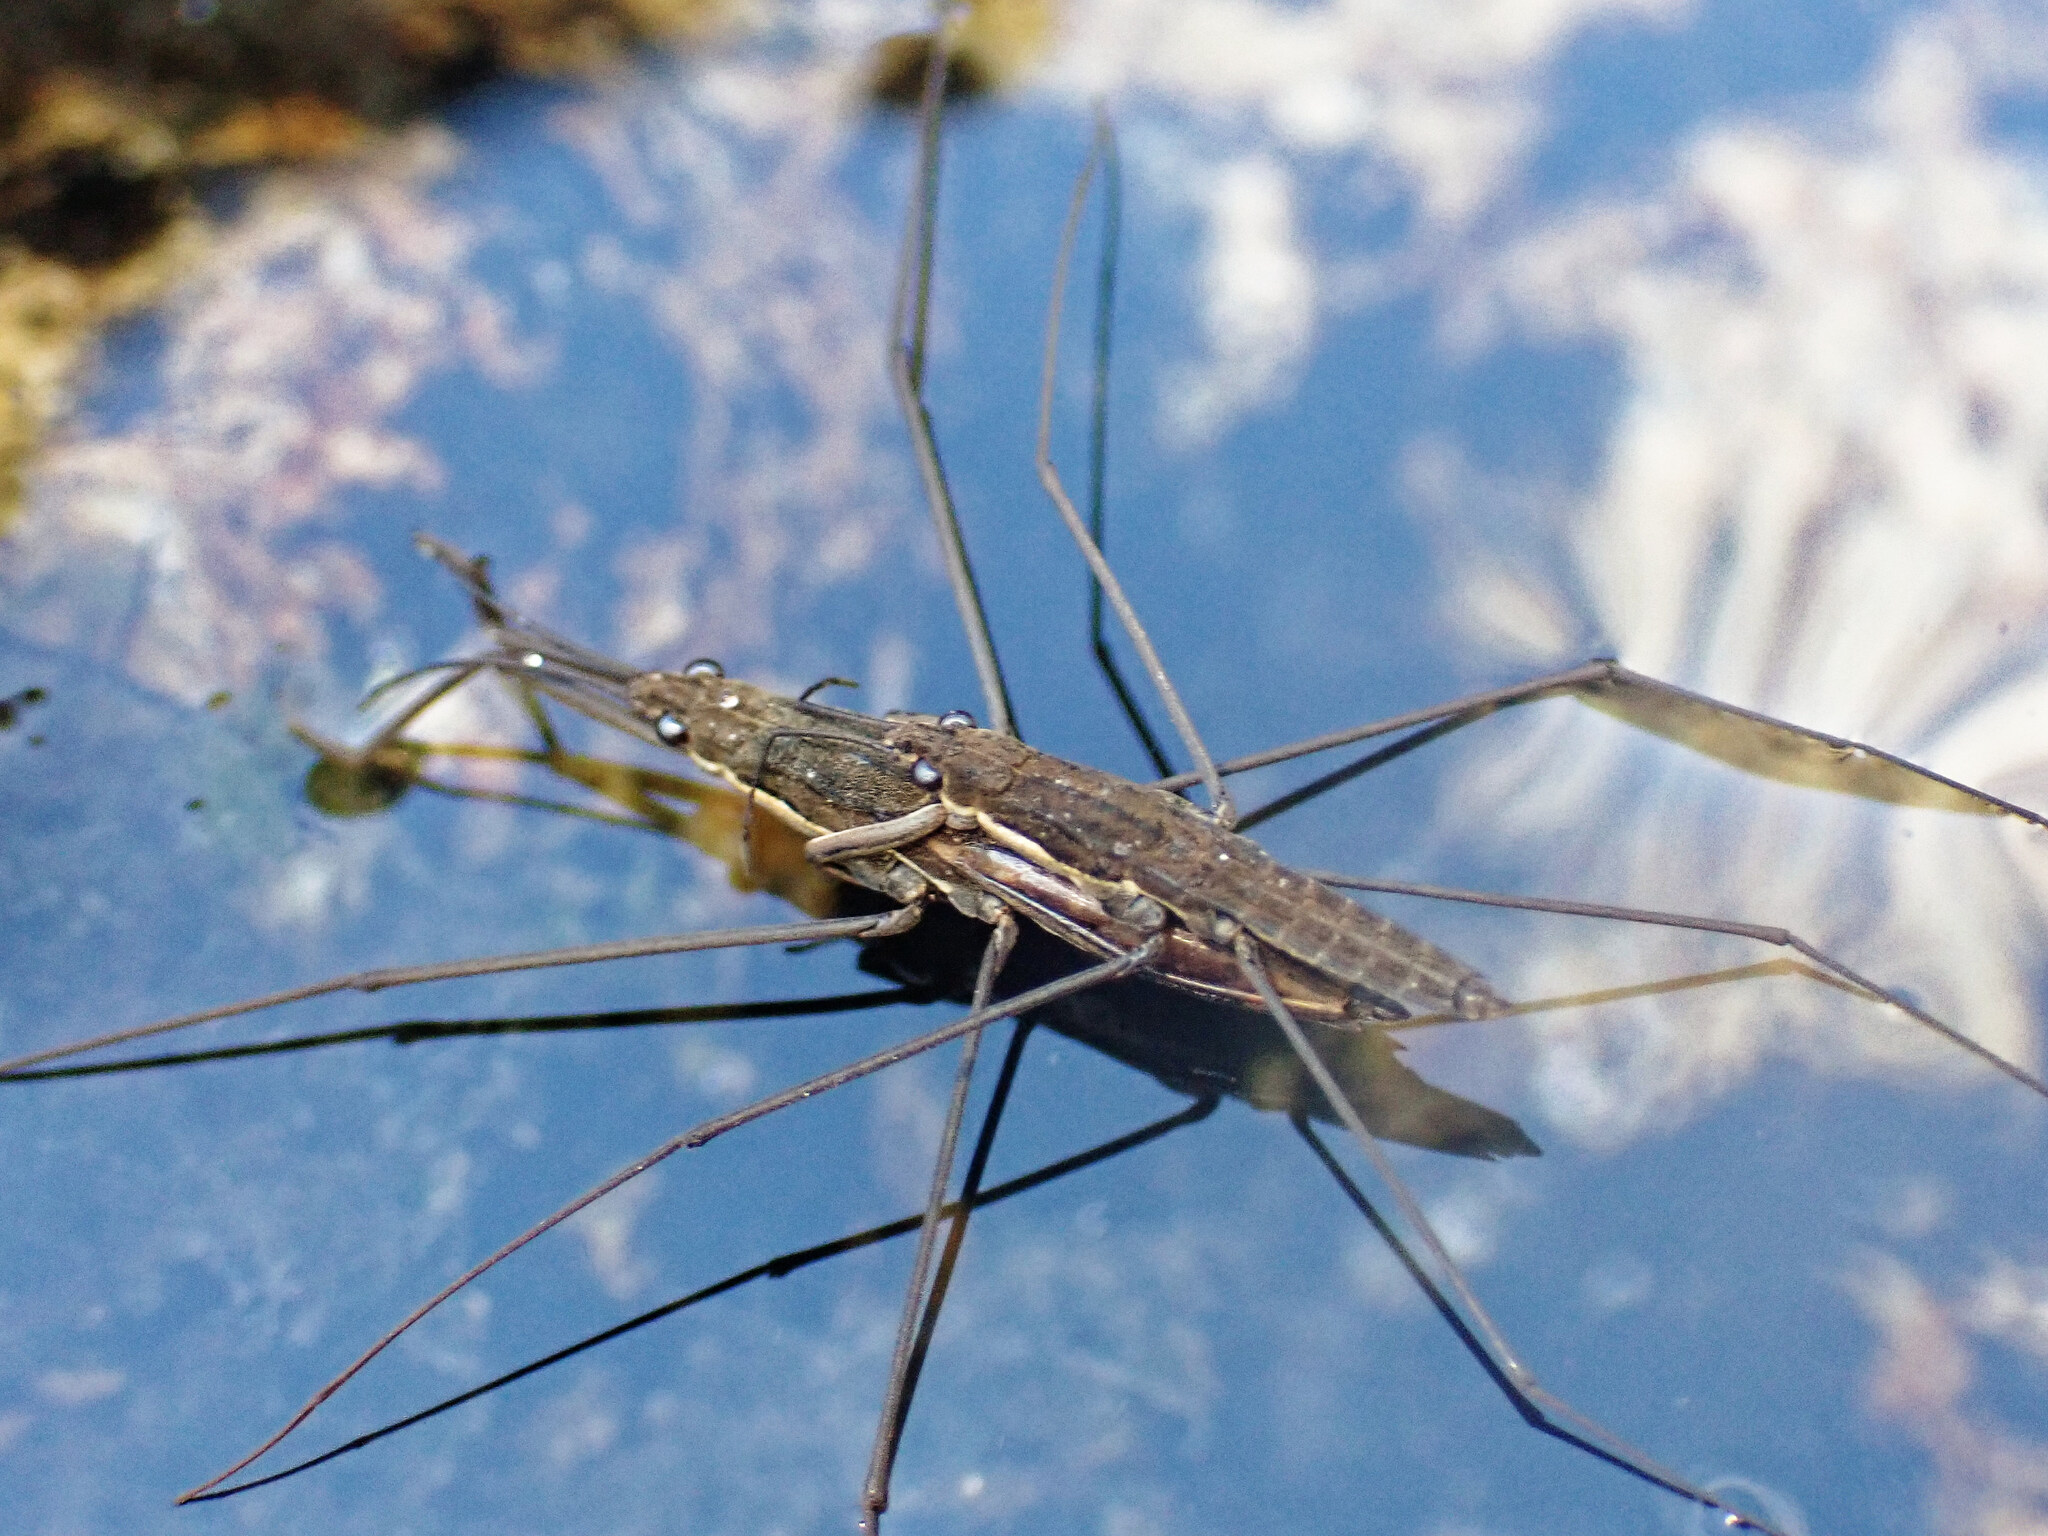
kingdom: Animalia
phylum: Arthropoda
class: Insecta
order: Hemiptera
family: Gerridae
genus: Aquarius
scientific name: Aquarius najas
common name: River skater
